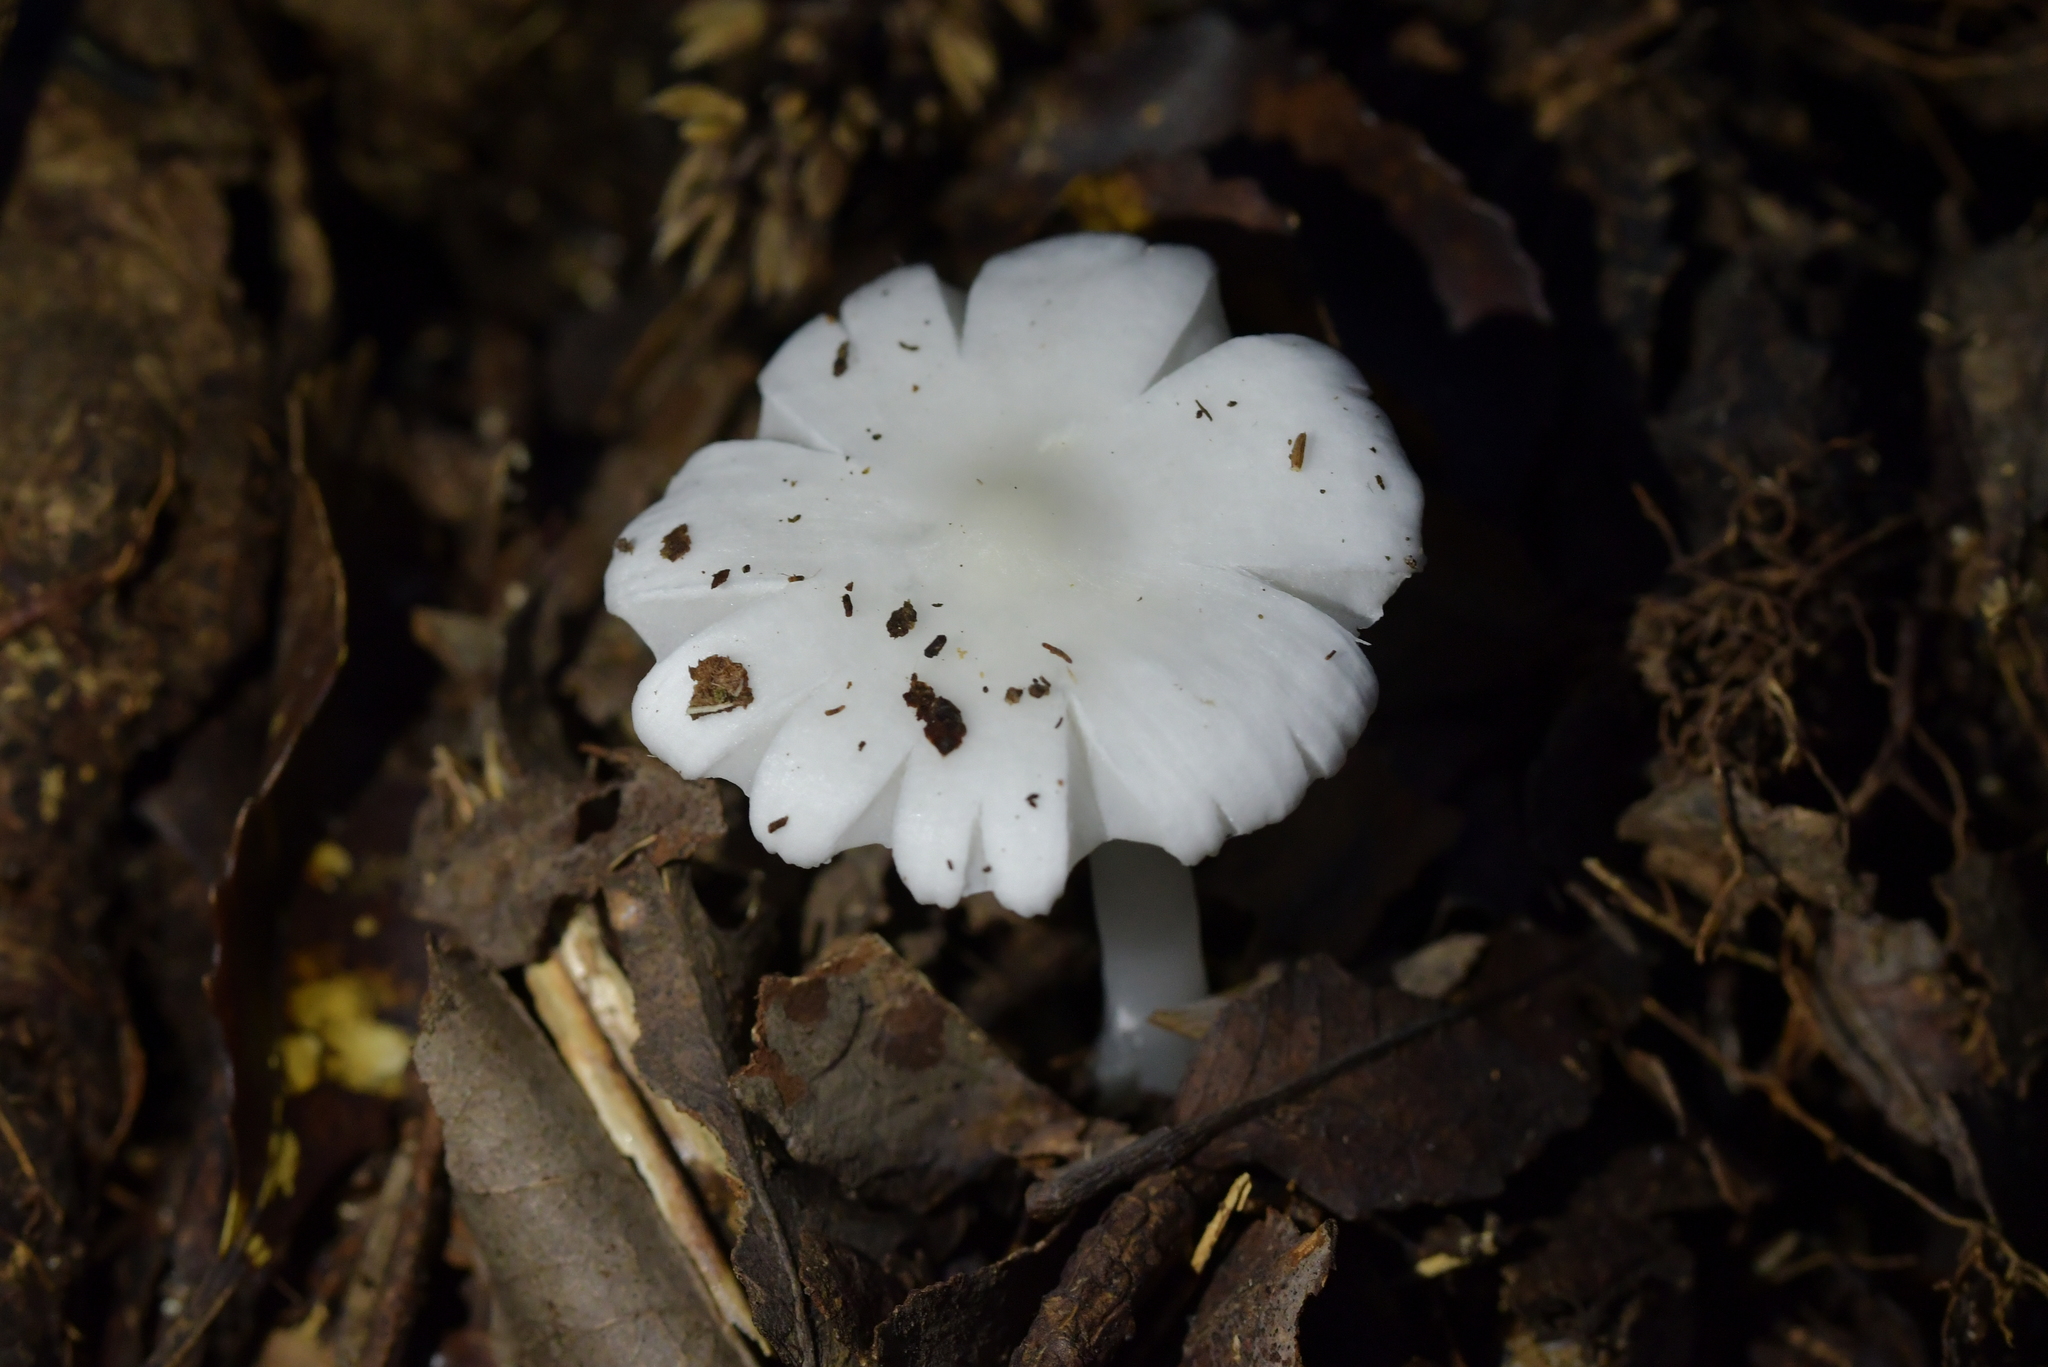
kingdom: Fungi
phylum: Basidiomycota
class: Agaricomycetes
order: Agaricales
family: Hygrophoraceae
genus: Humidicutis
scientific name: Humidicutis mavis
